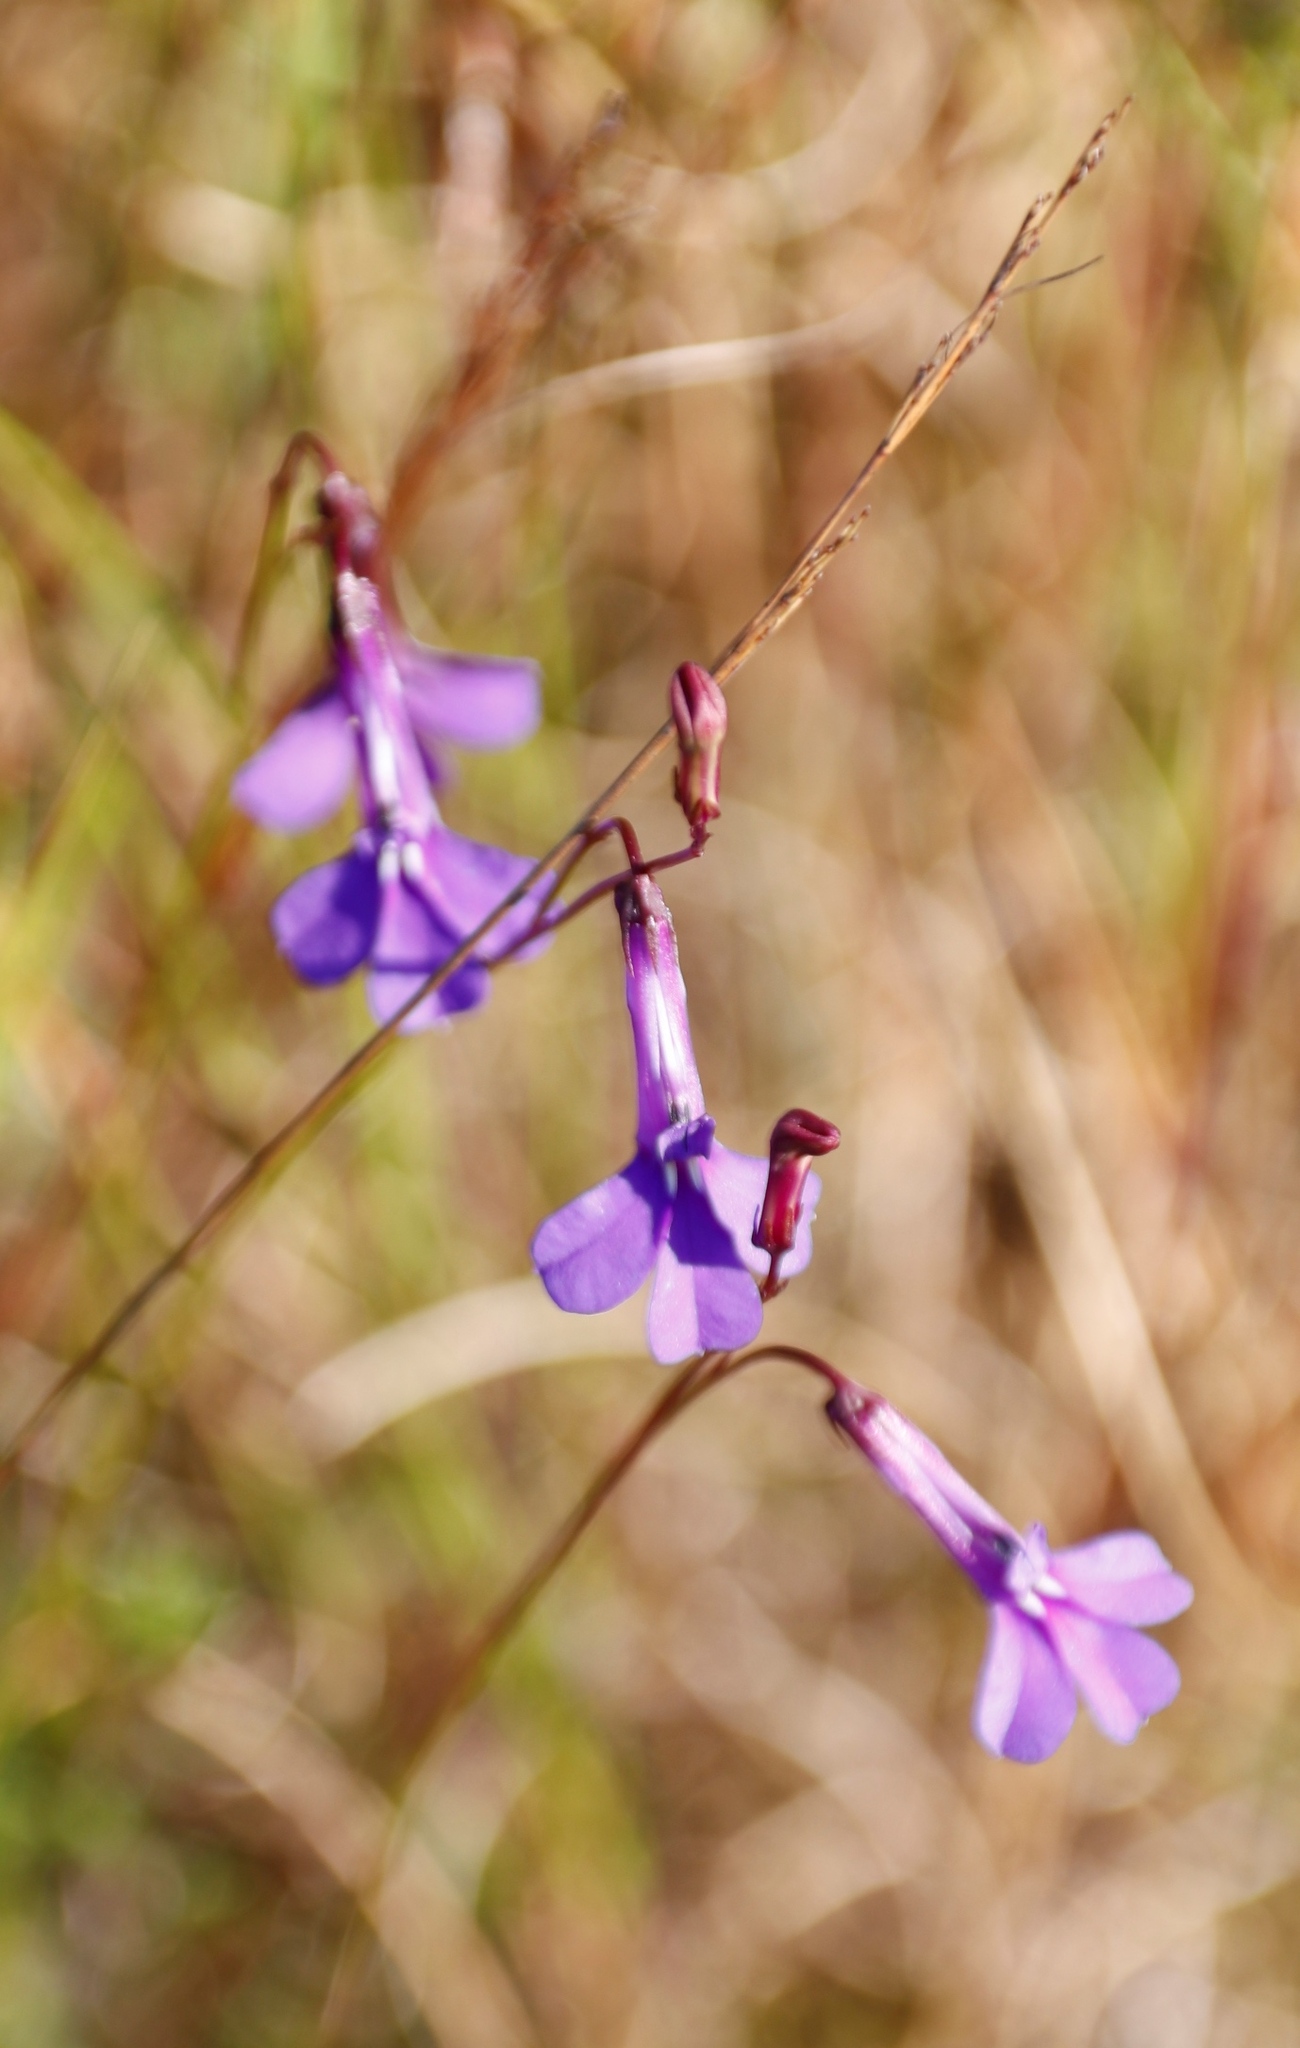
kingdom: Plantae
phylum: Tracheophyta
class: Magnoliopsida
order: Asterales
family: Campanulaceae
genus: Lobelia
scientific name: Lobelia chamaepitys
